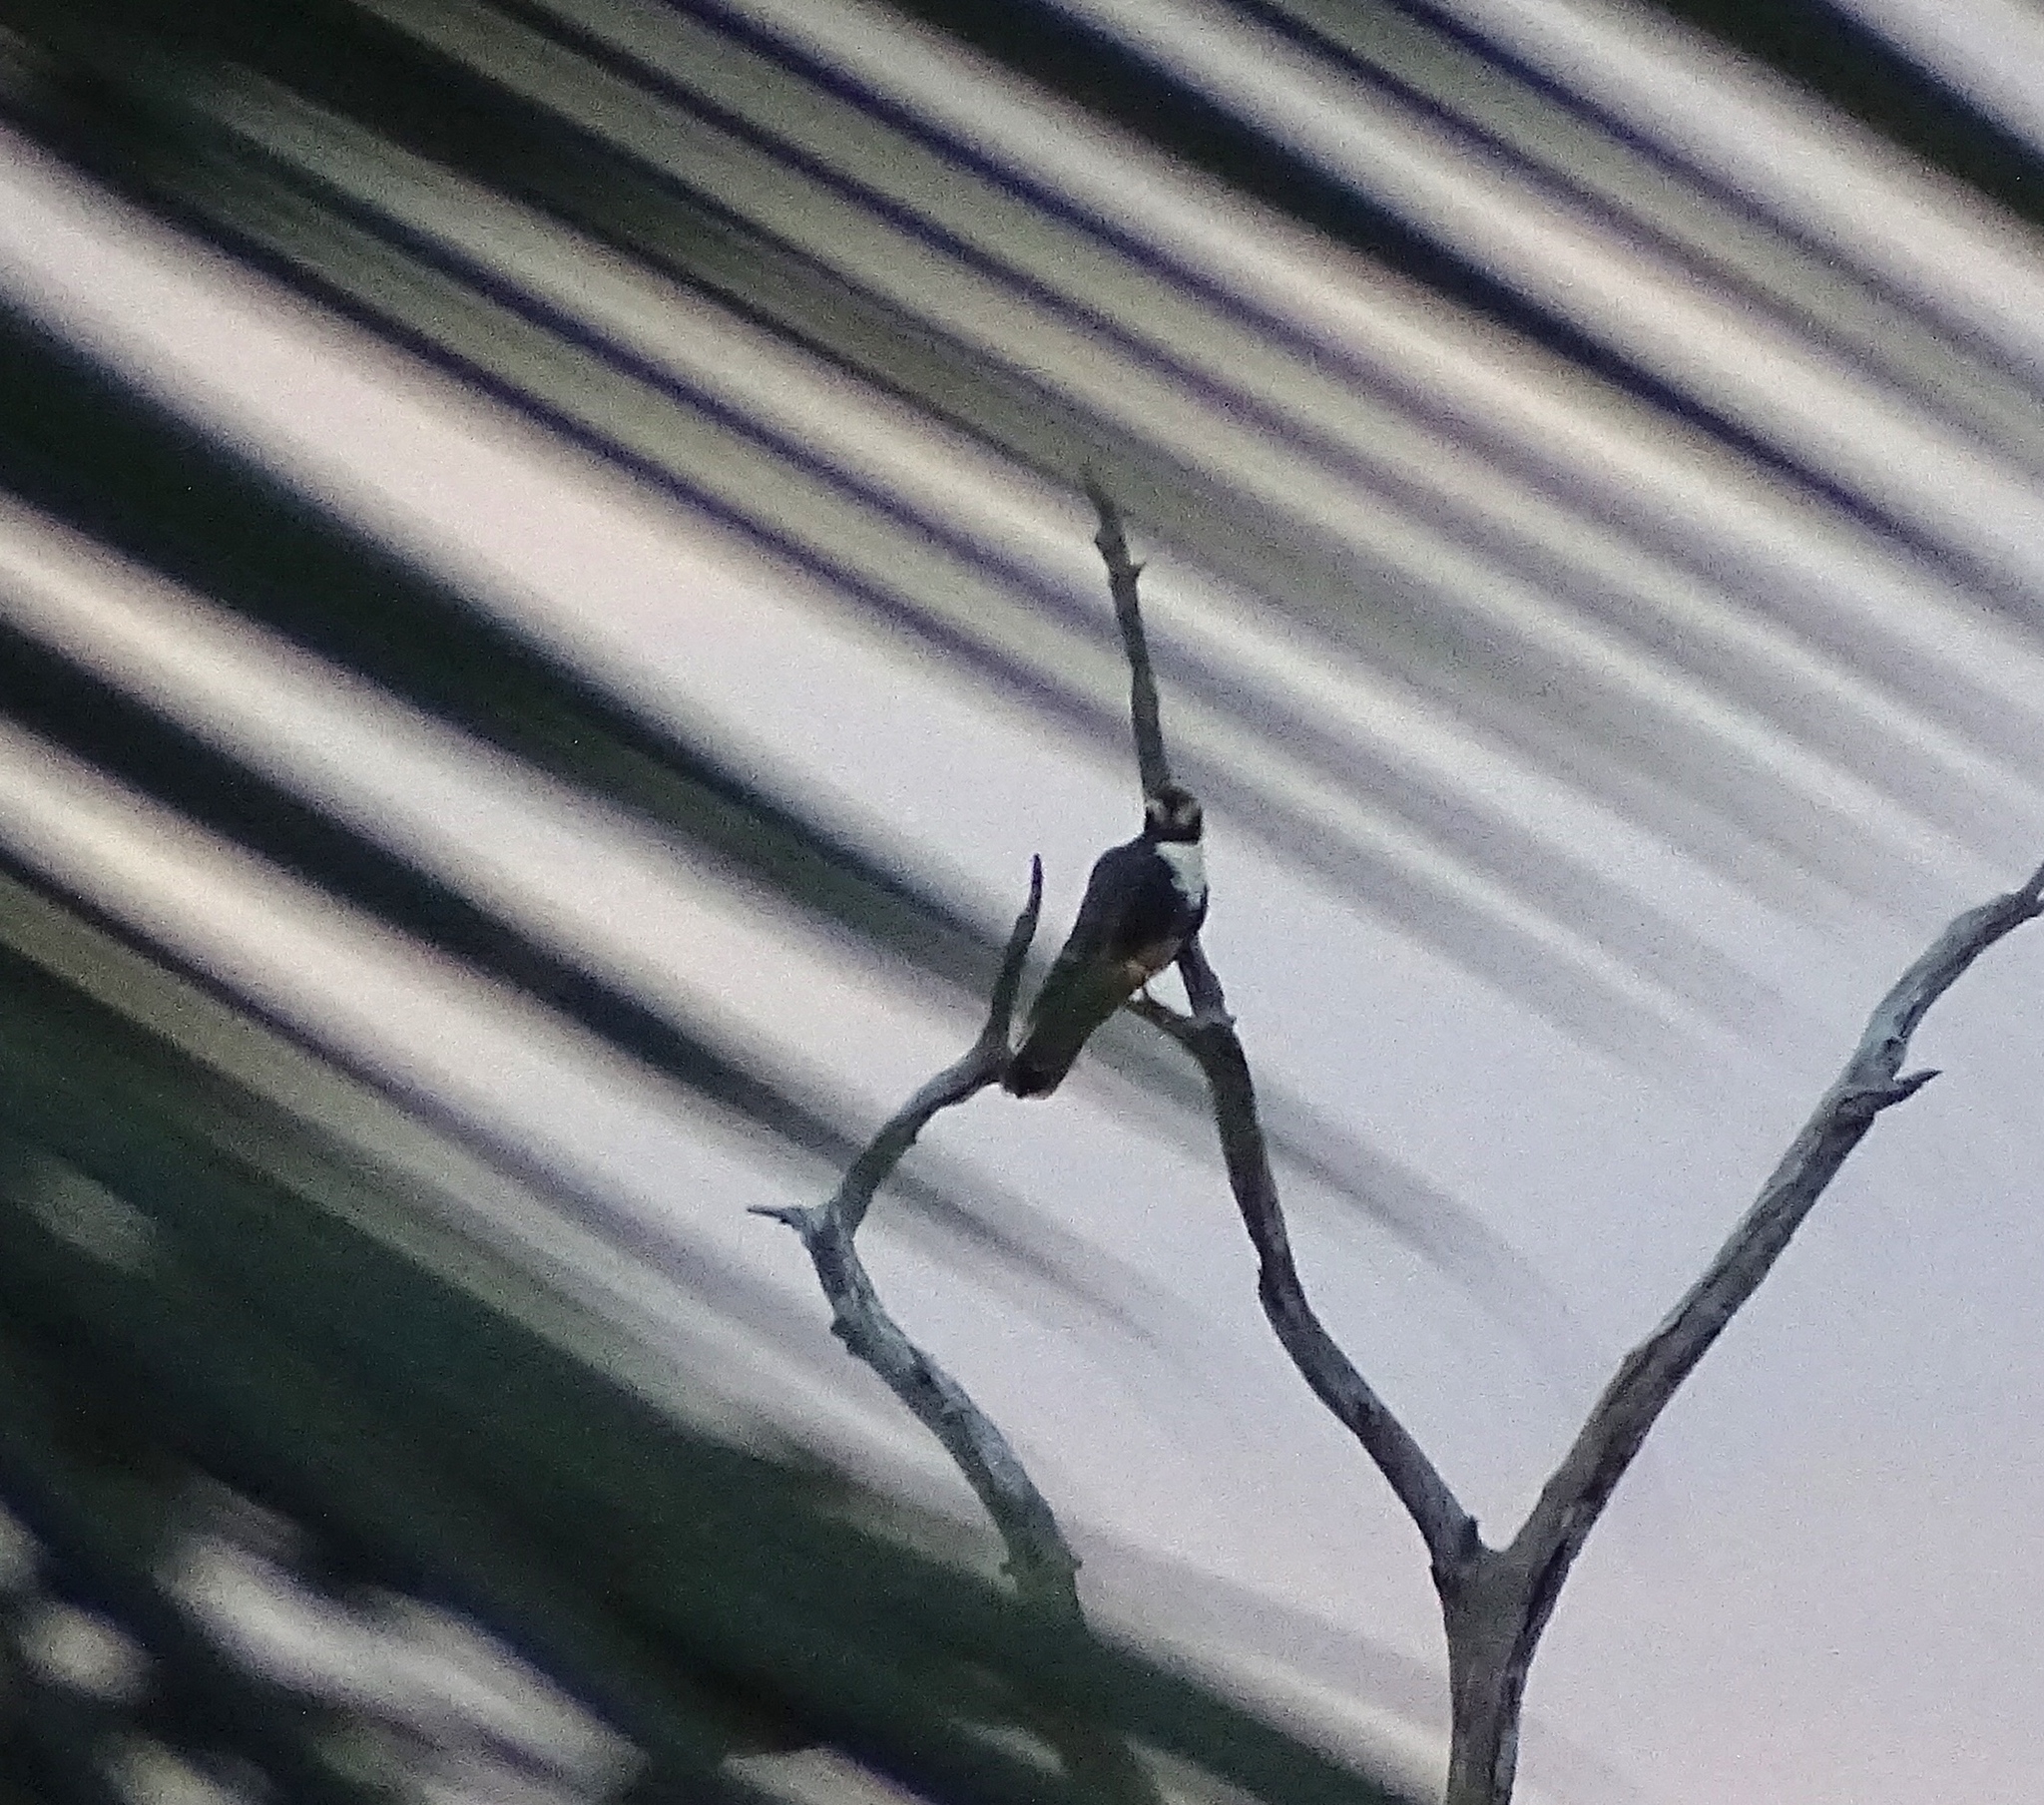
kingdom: Animalia
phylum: Chordata
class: Aves
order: Falconiformes
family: Falconidae
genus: Falco
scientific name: Falco femoralis
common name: Aplomado falcon
